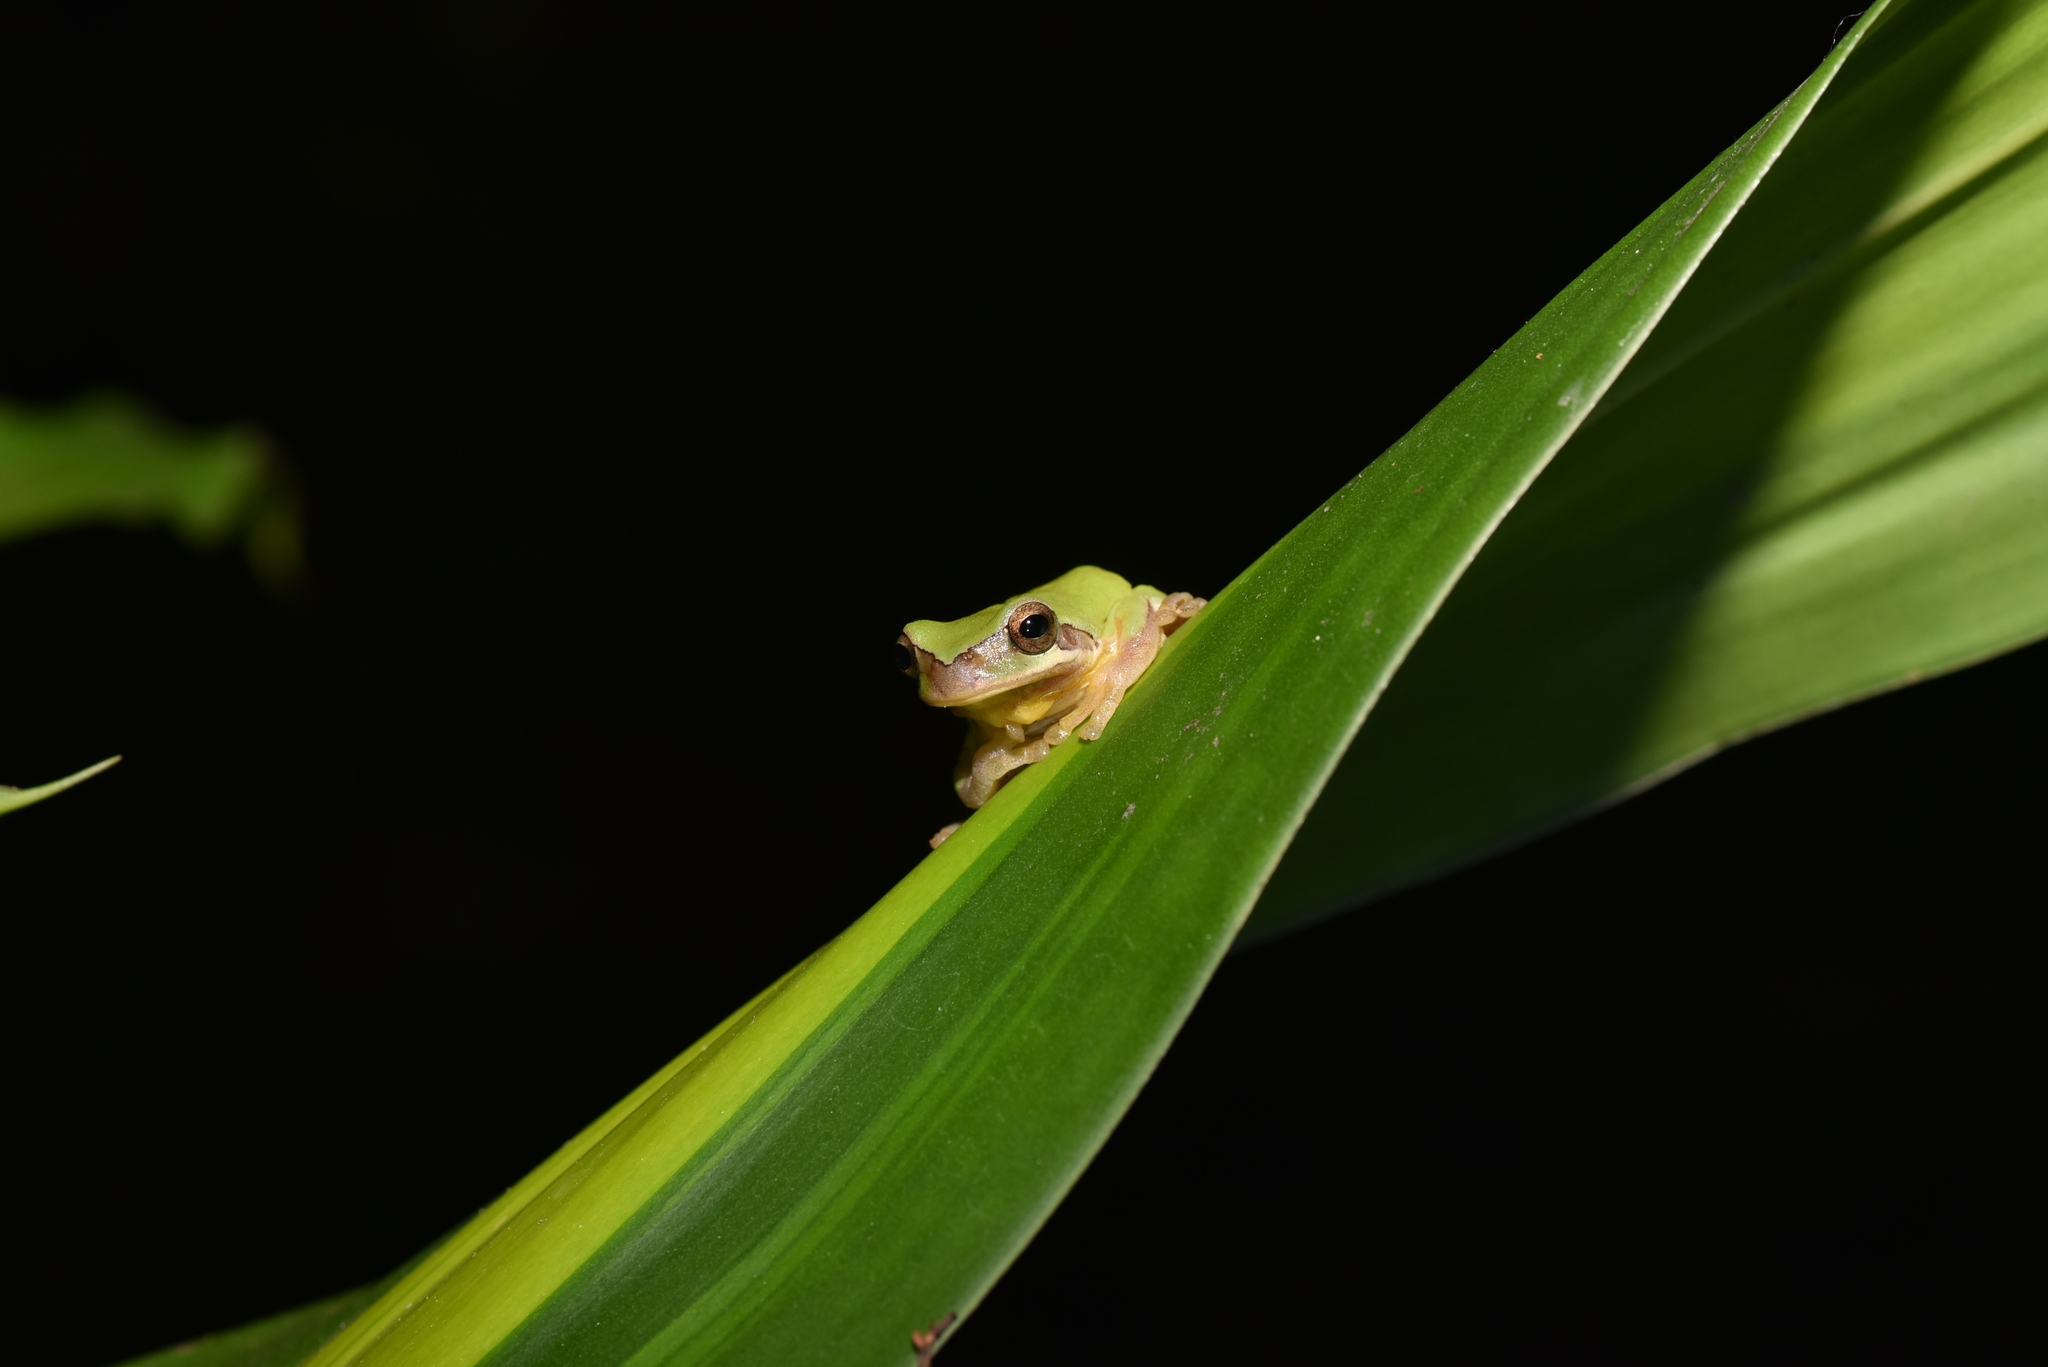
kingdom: Animalia
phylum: Chordata
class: Amphibia
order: Anura
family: Hylidae
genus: Hyla
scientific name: Hyla chinensis
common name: Common chinese treefrog
